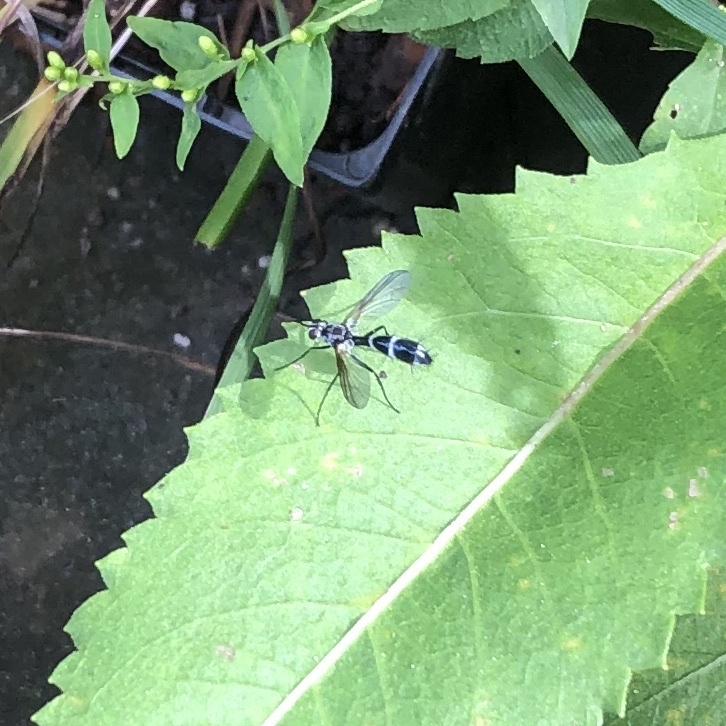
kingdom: Animalia
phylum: Arthropoda
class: Insecta
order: Diptera
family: Tachinidae
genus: Cordyligaster
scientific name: Cordyligaster septentrionalis
